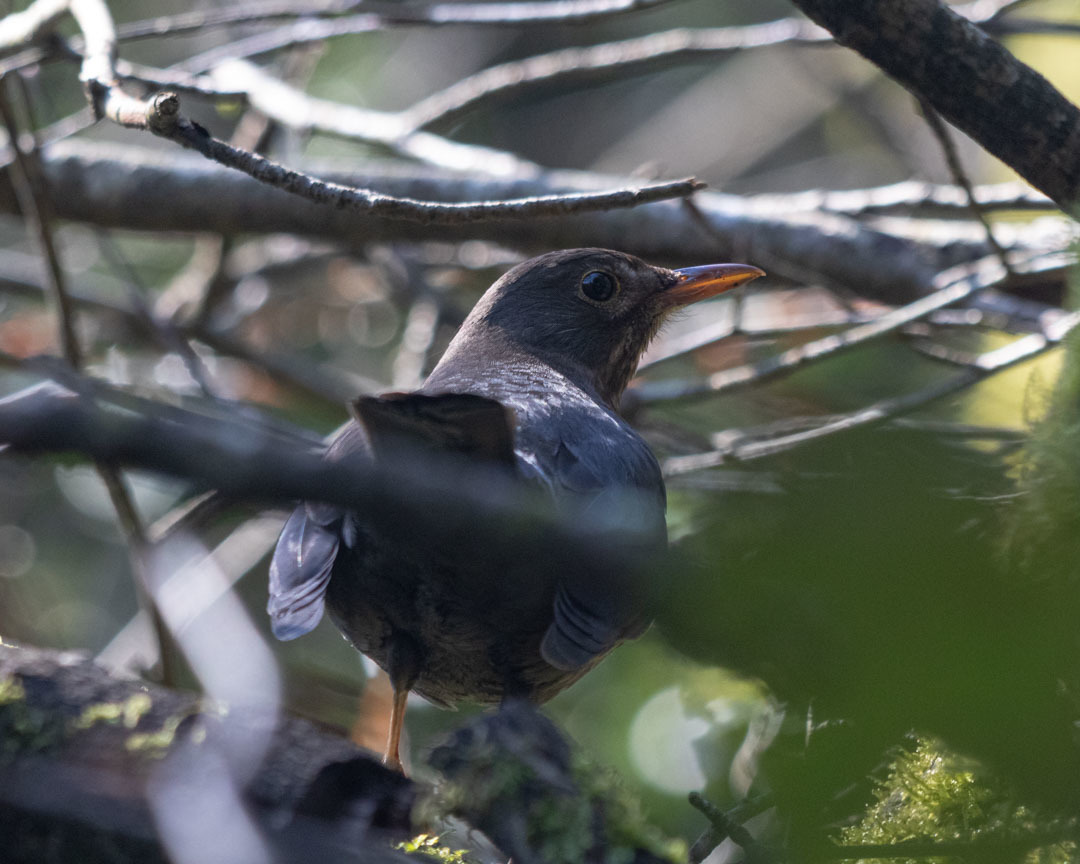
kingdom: Animalia
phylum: Chordata
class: Aves
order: Passeriformes
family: Turdidae
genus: Turdus
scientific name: Turdus merula
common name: Common blackbird
